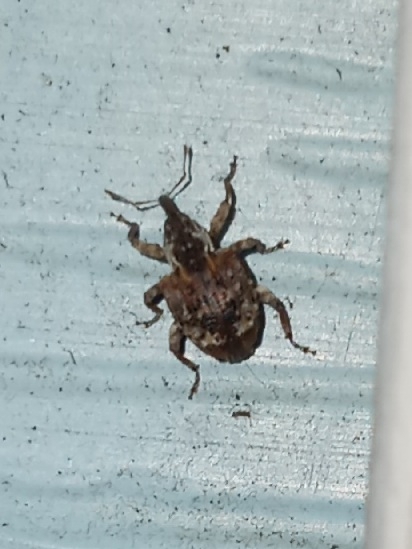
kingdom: Animalia
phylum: Arthropoda
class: Insecta
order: Coleoptera
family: Curculionidae
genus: Conotrachelus
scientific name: Conotrachelus carolinensis
